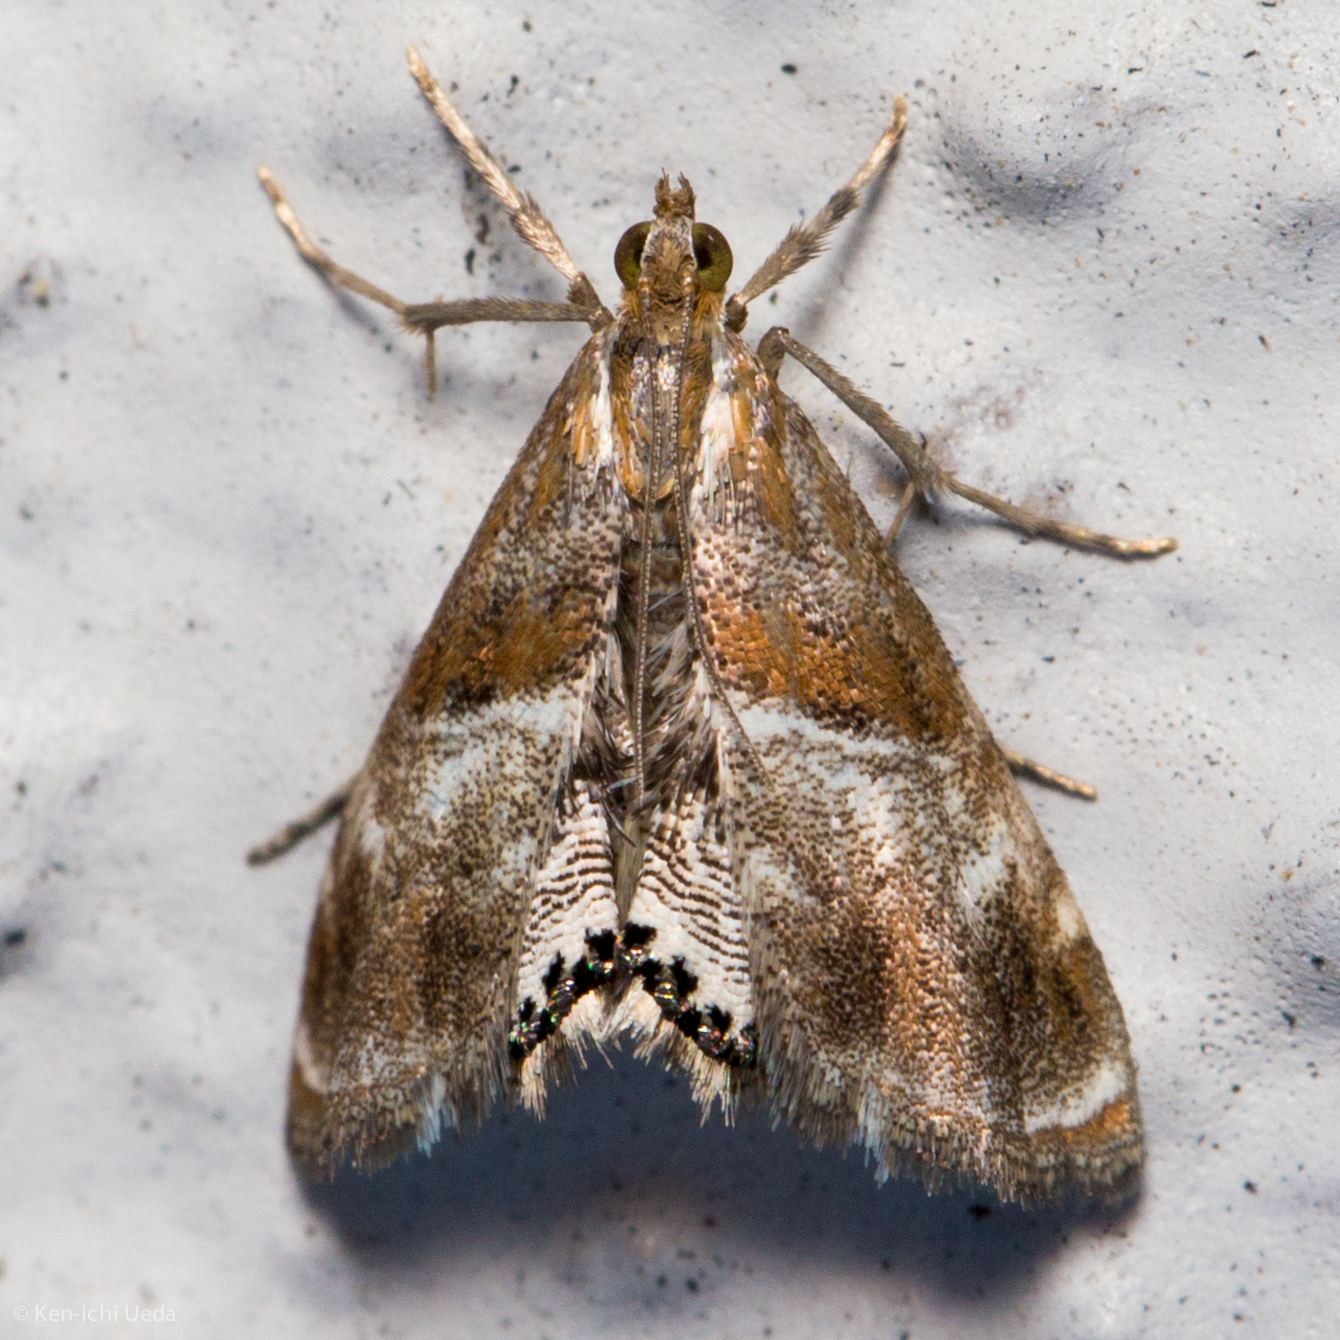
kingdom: Animalia
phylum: Arthropoda
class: Insecta
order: Lepidoptera
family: Crambidae
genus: Dicymolomia
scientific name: Dicymolomia metalliferalis
